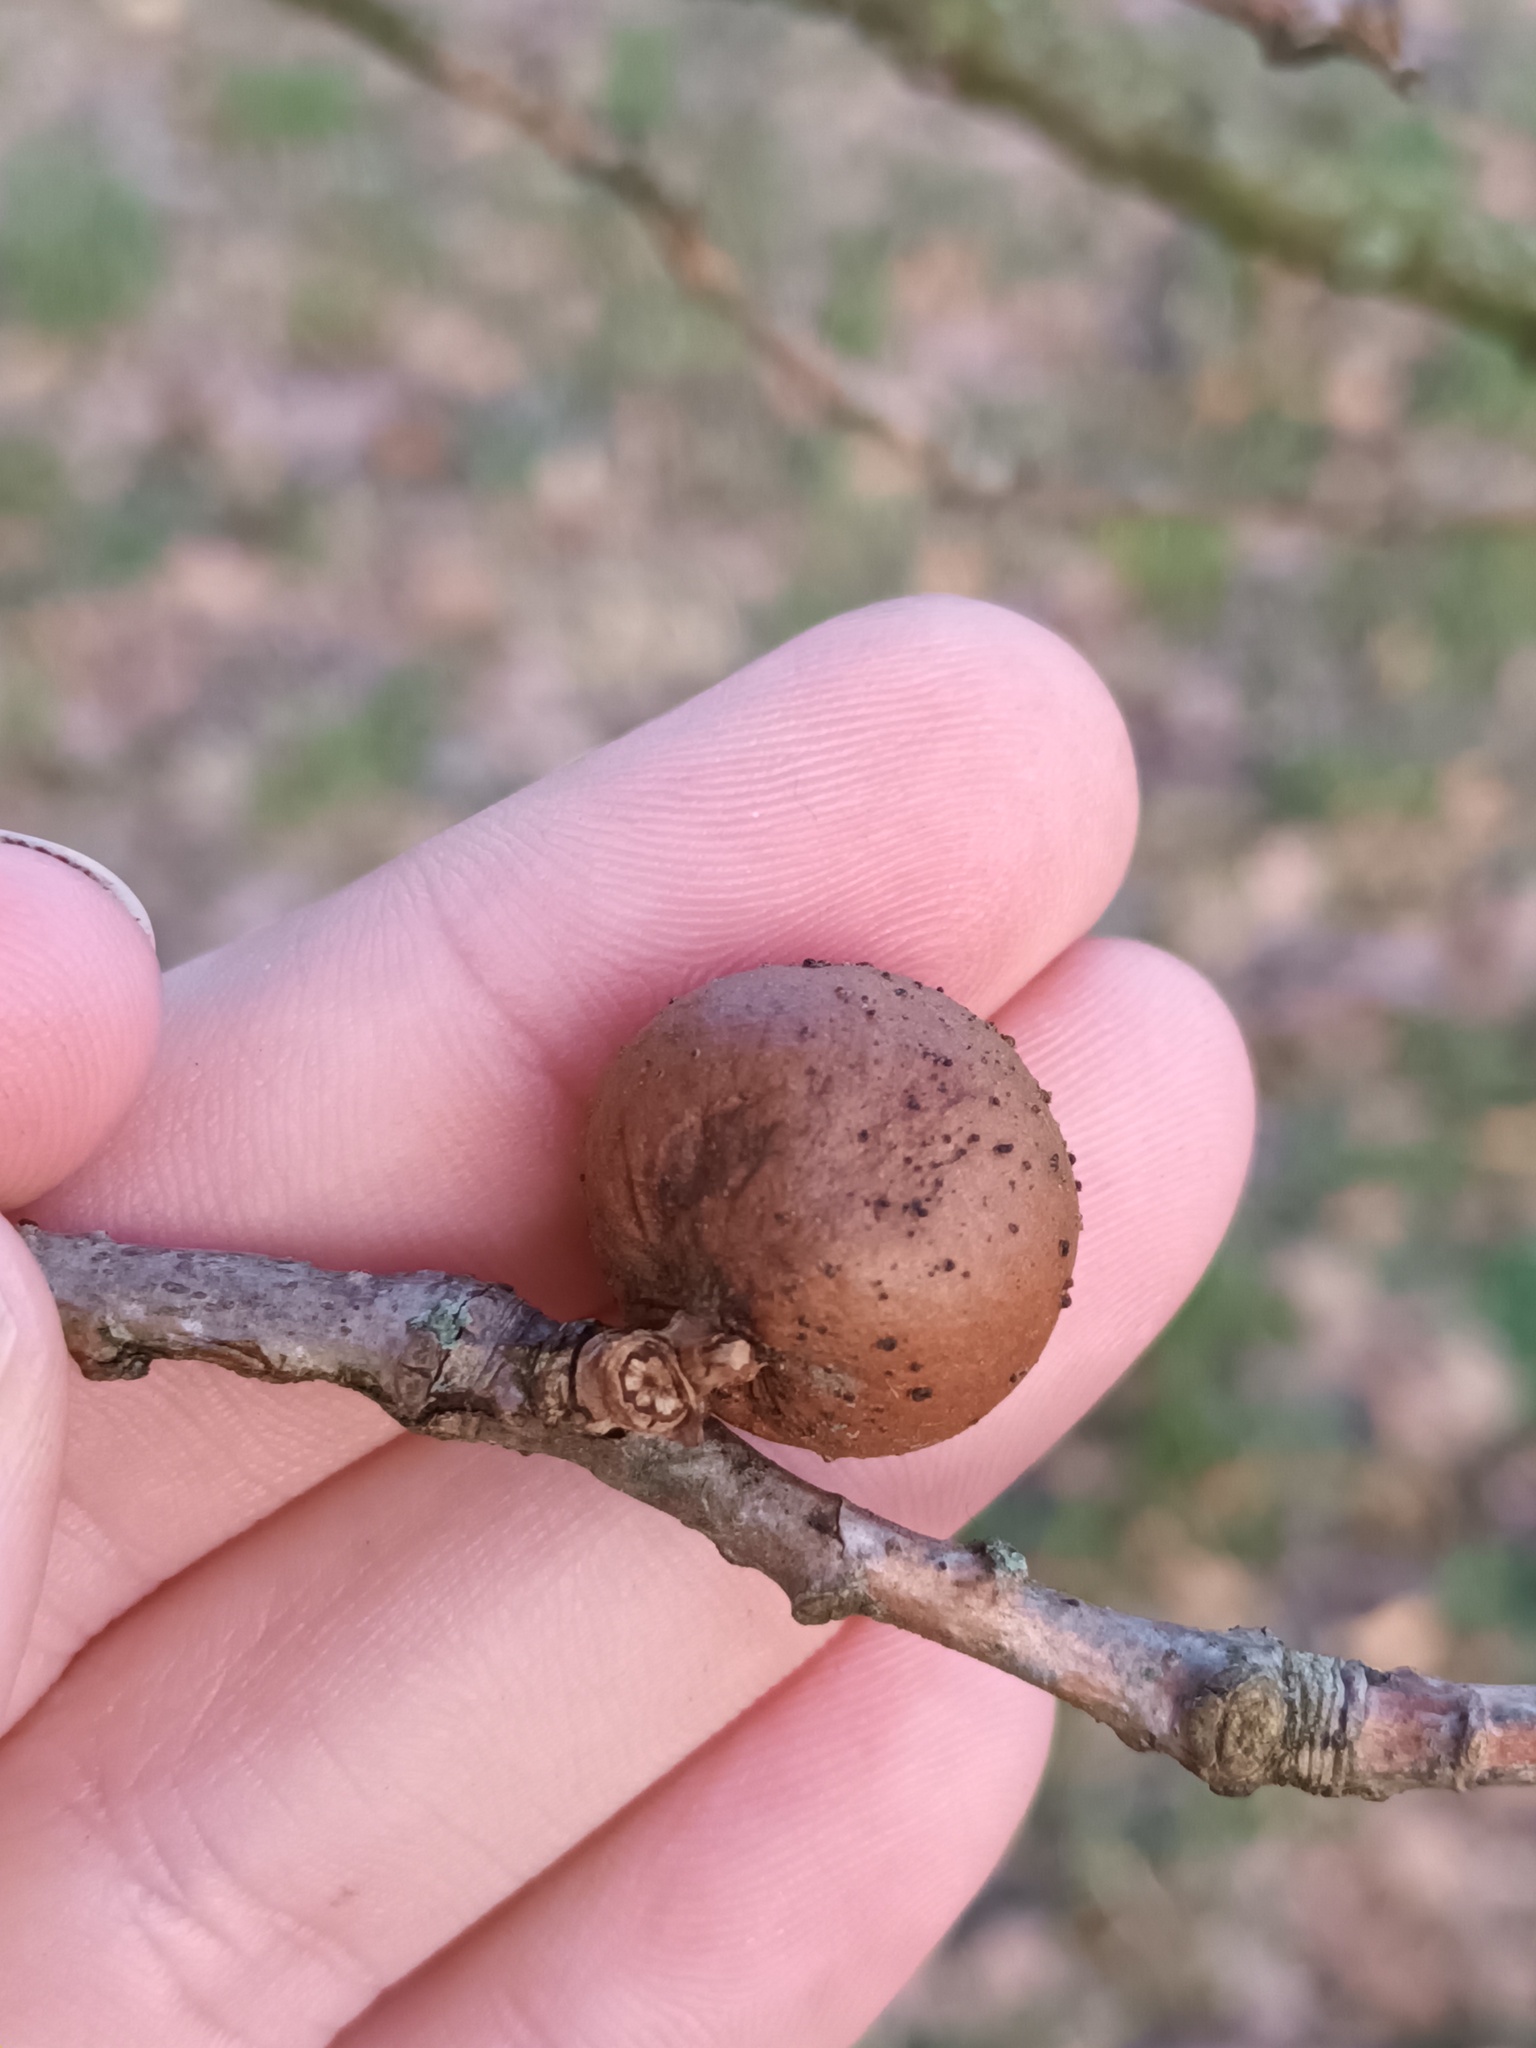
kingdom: Animalia
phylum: Arthropoda
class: Insecta
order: Hymenoptera
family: Cynipidae
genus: Andricus
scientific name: Andricus kollari
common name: Marble gall
